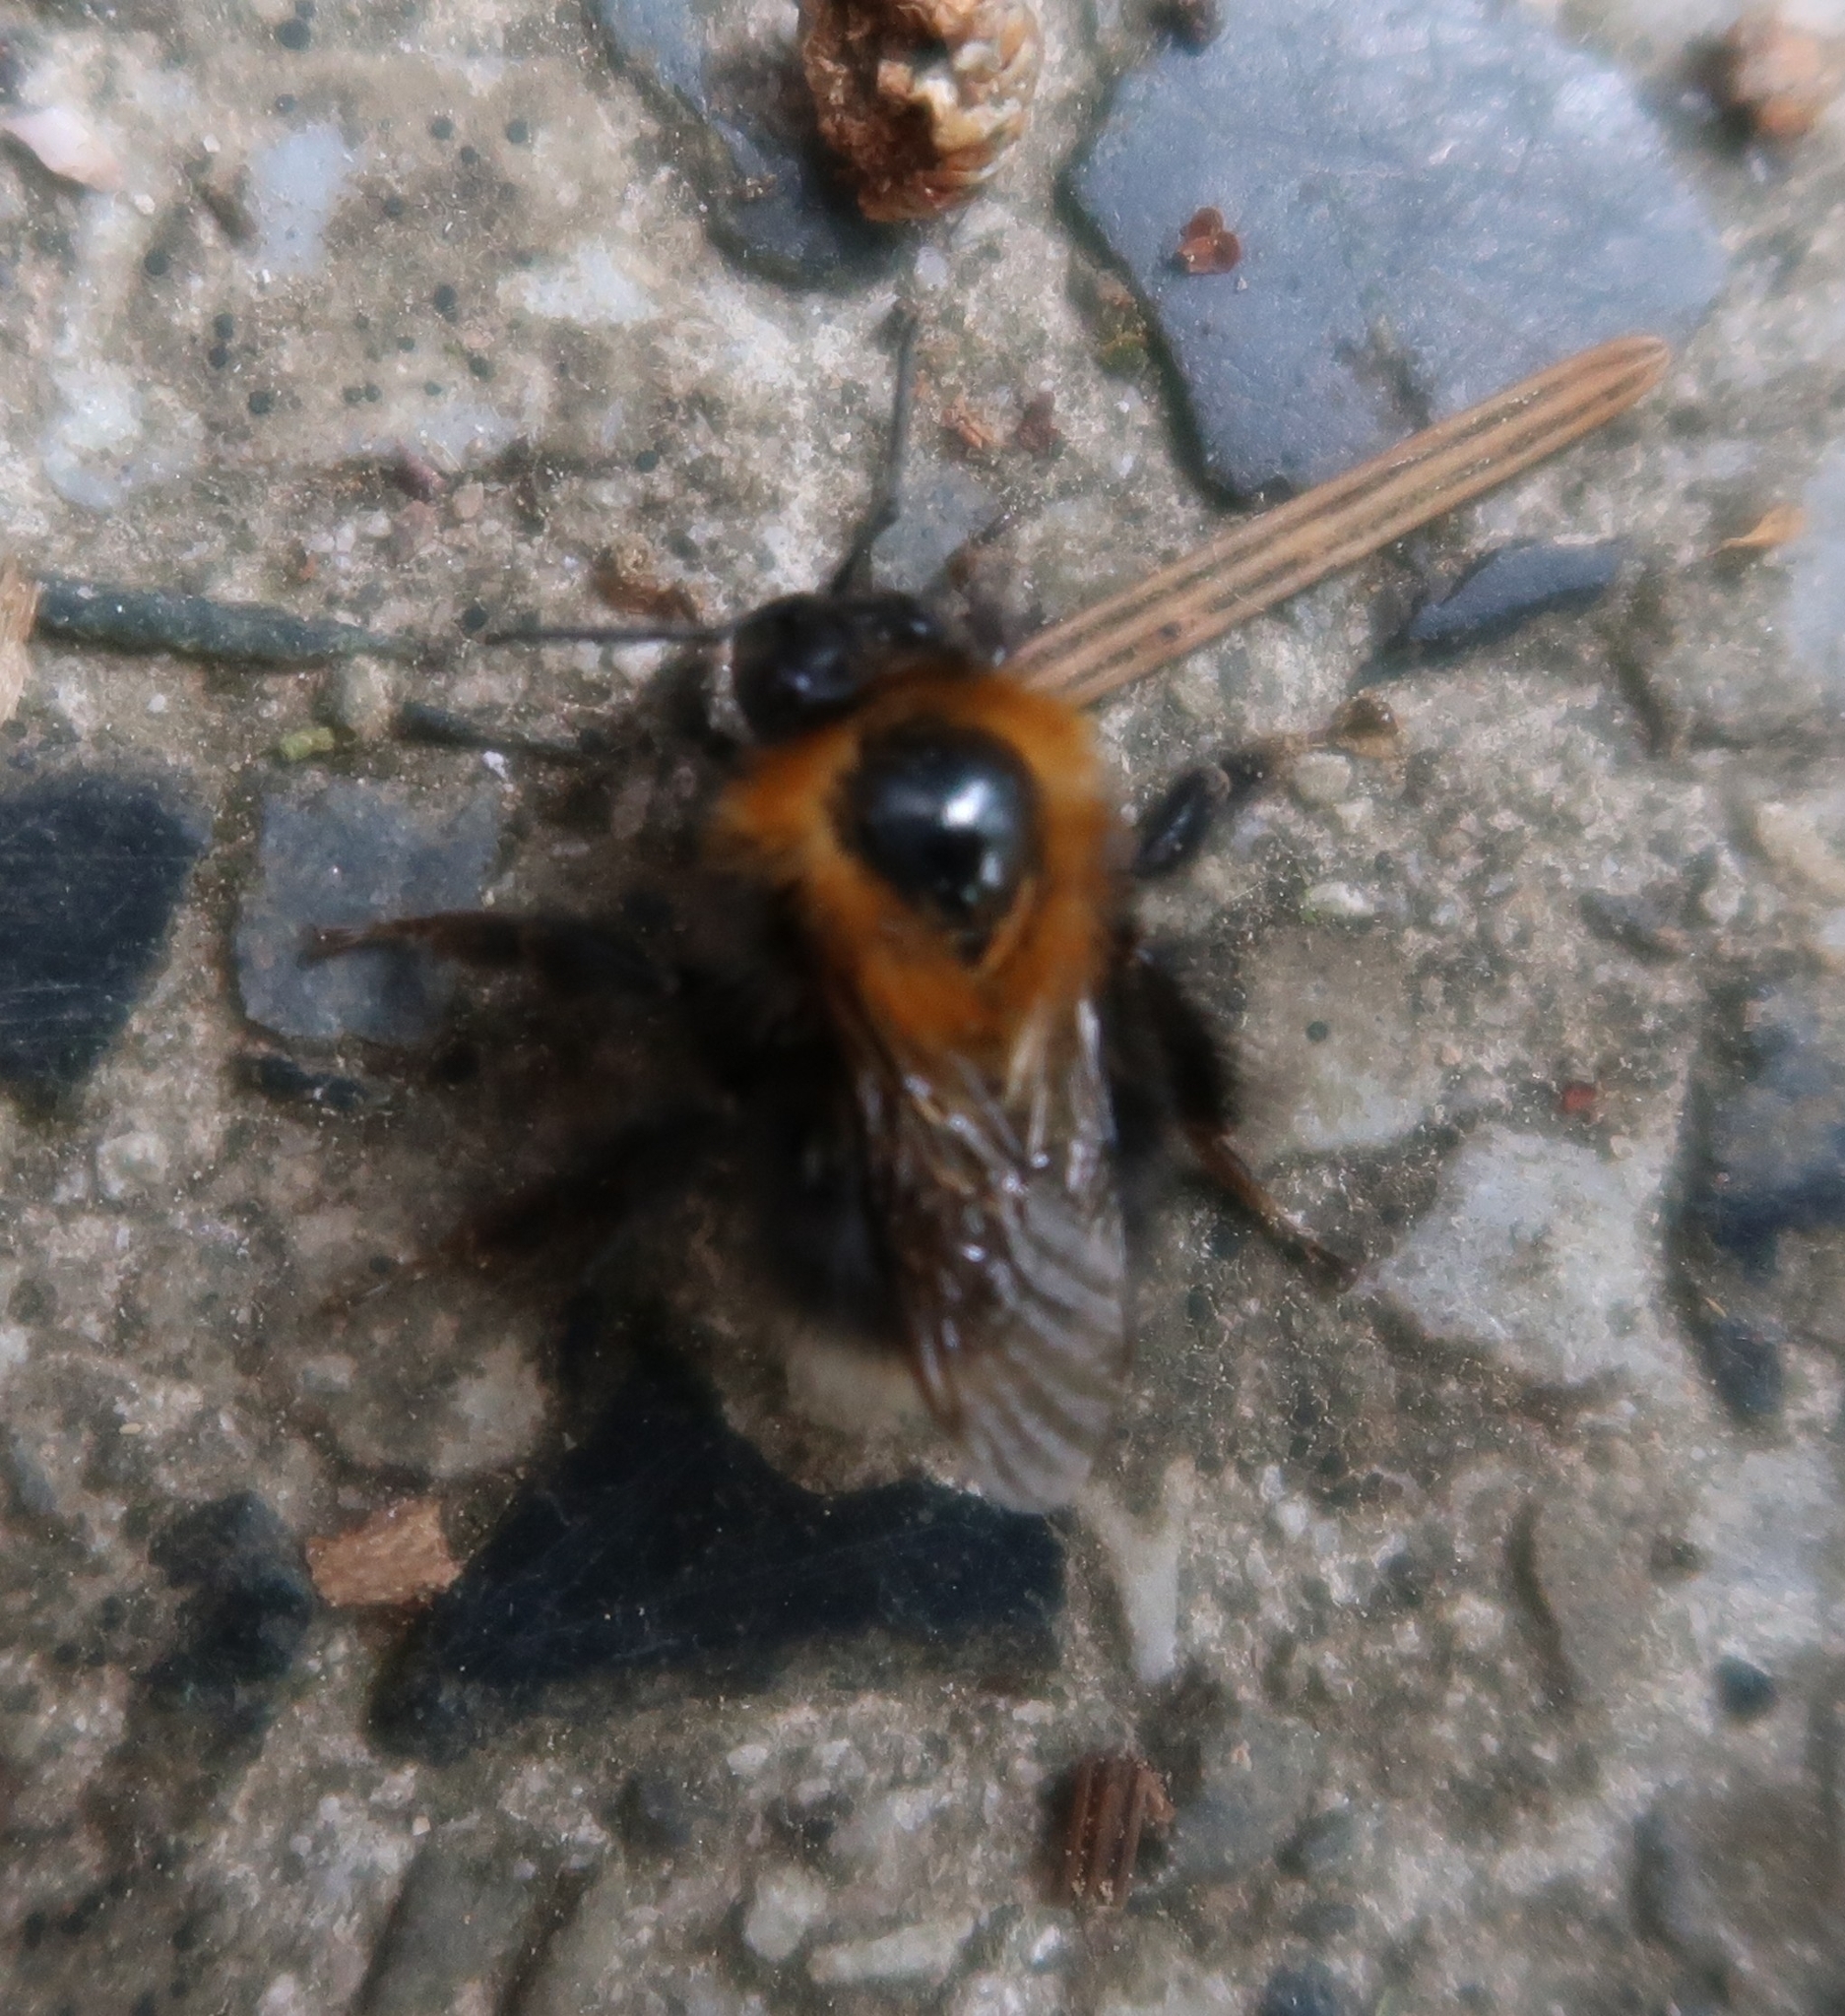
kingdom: Animalia
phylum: Arthropoda
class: Insecta
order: Hymenoptera
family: Apidae
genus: Bombus
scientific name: Bombus hypnorum
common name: New garden bumblebee
